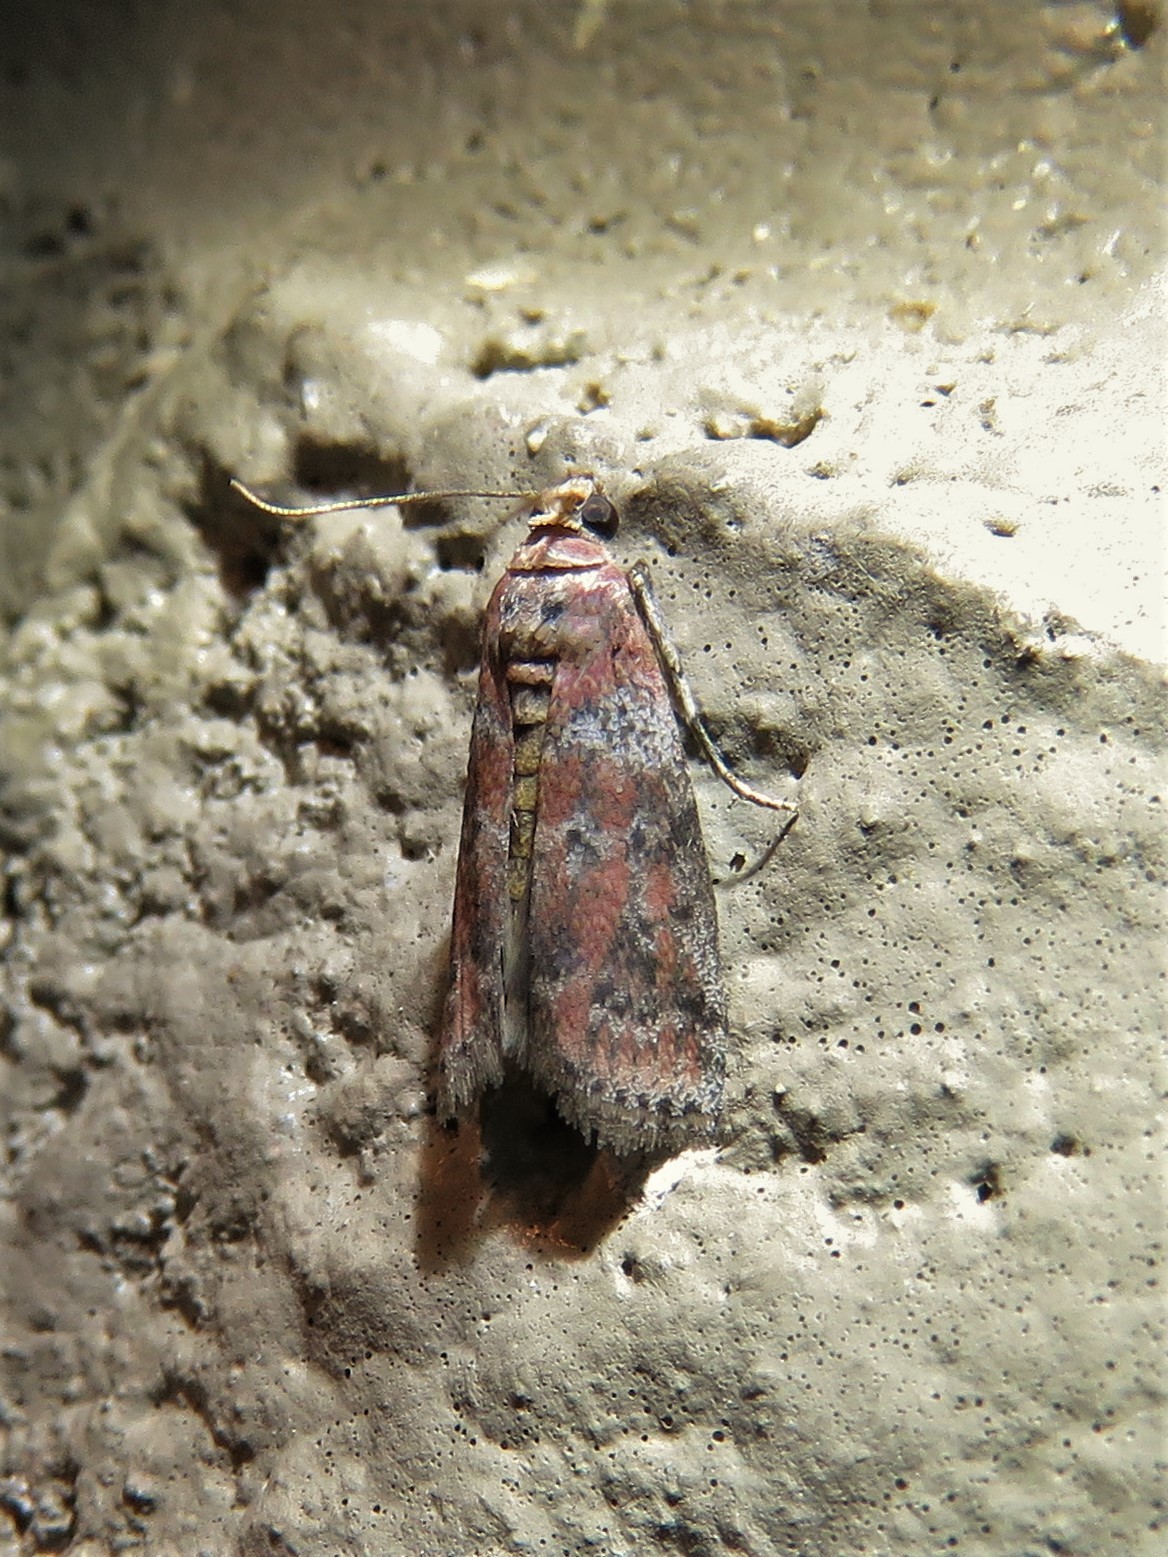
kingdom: Animalia
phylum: Arthropoda
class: Insecta
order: Lepidoptera
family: Pyralidae
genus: Sciota
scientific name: Sciota
